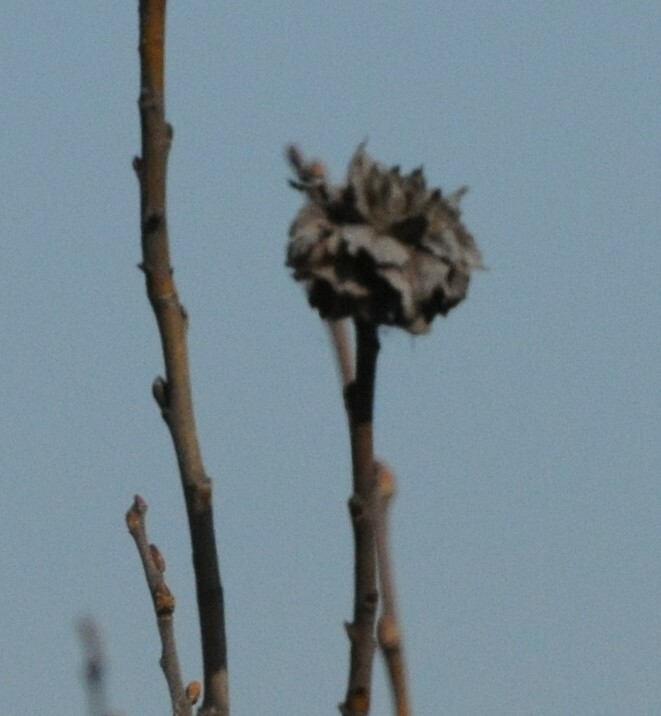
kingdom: Animalia
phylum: Arthropoda
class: Insecta
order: Diptera
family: Cecidomyiidae
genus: Rabdophaga
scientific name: Rabdophaga rosaria
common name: Willow rose gall midge
